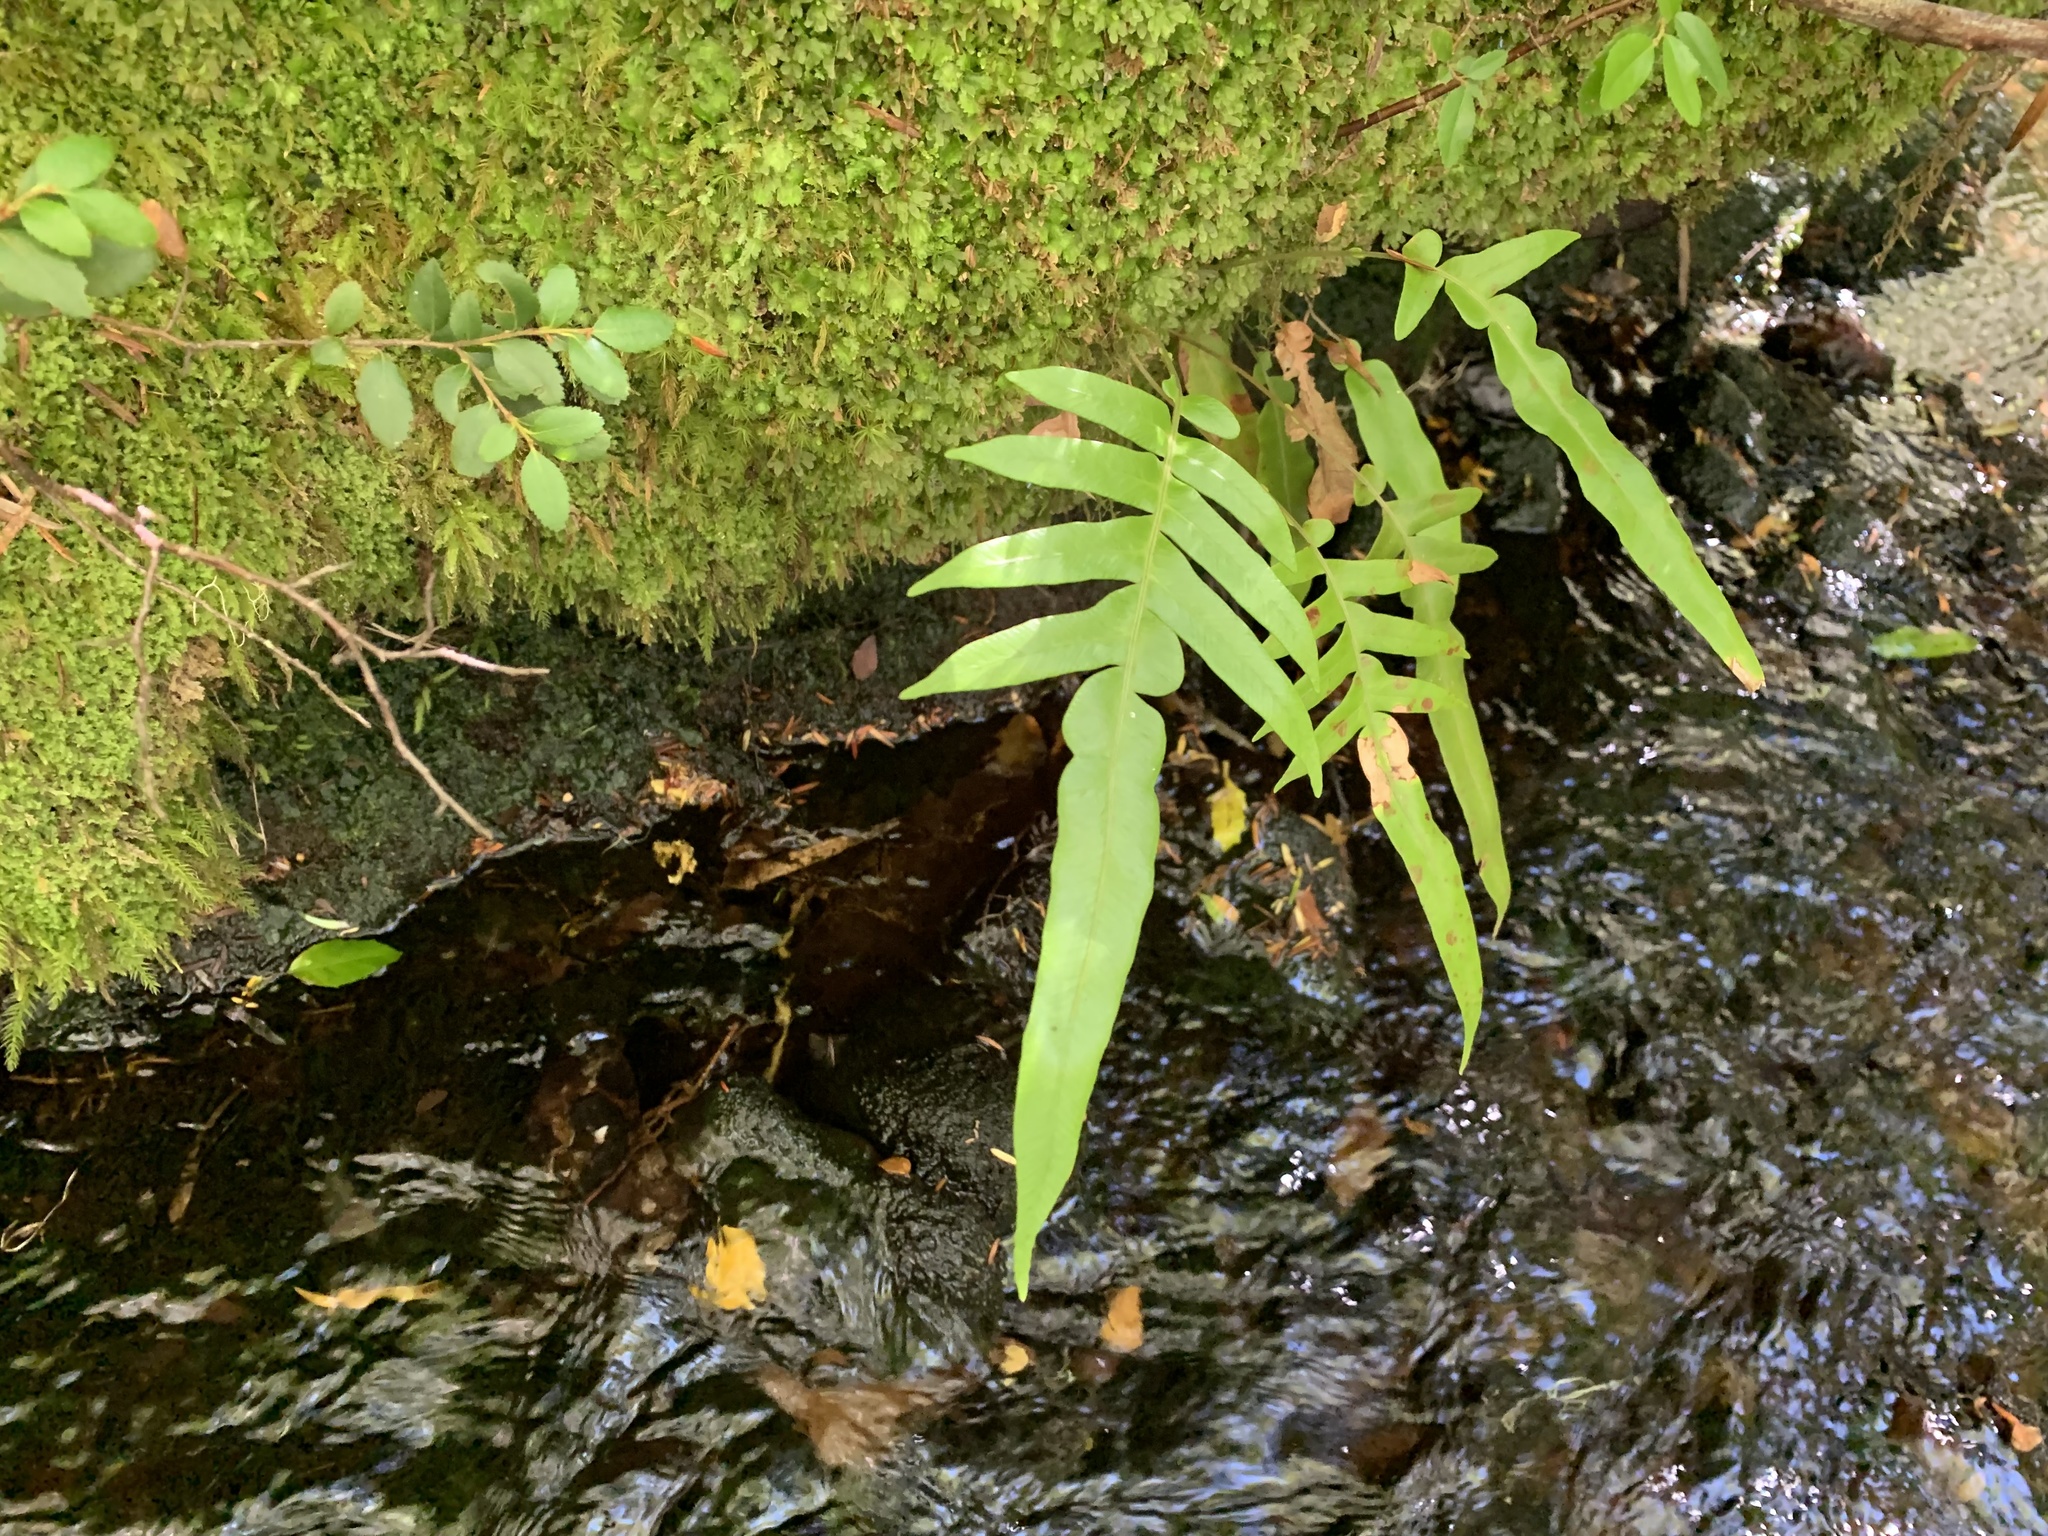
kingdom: Plantae
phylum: Tracheophyta
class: Polypodiopsida
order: Polypodiales
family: Polypodiaceae
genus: Synammia
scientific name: Synammia feuillei
